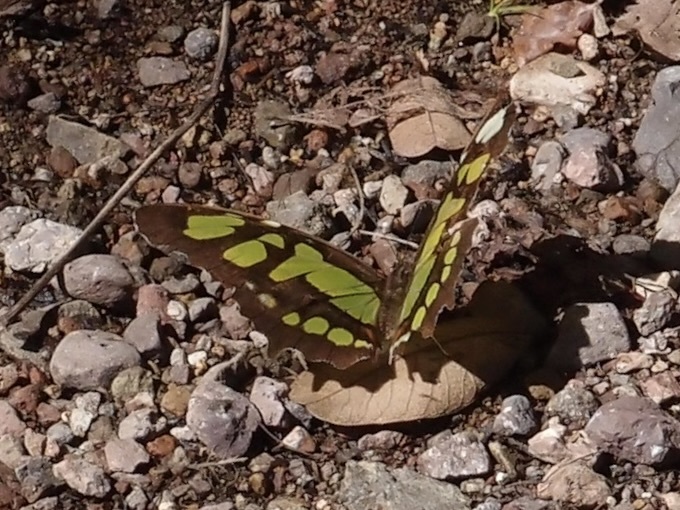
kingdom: Animalia
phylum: Arthropoda
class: Insecta
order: Lepidoptera
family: Nymphalidae
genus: Siproeta
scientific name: Siproeta stelenes
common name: Malachite
